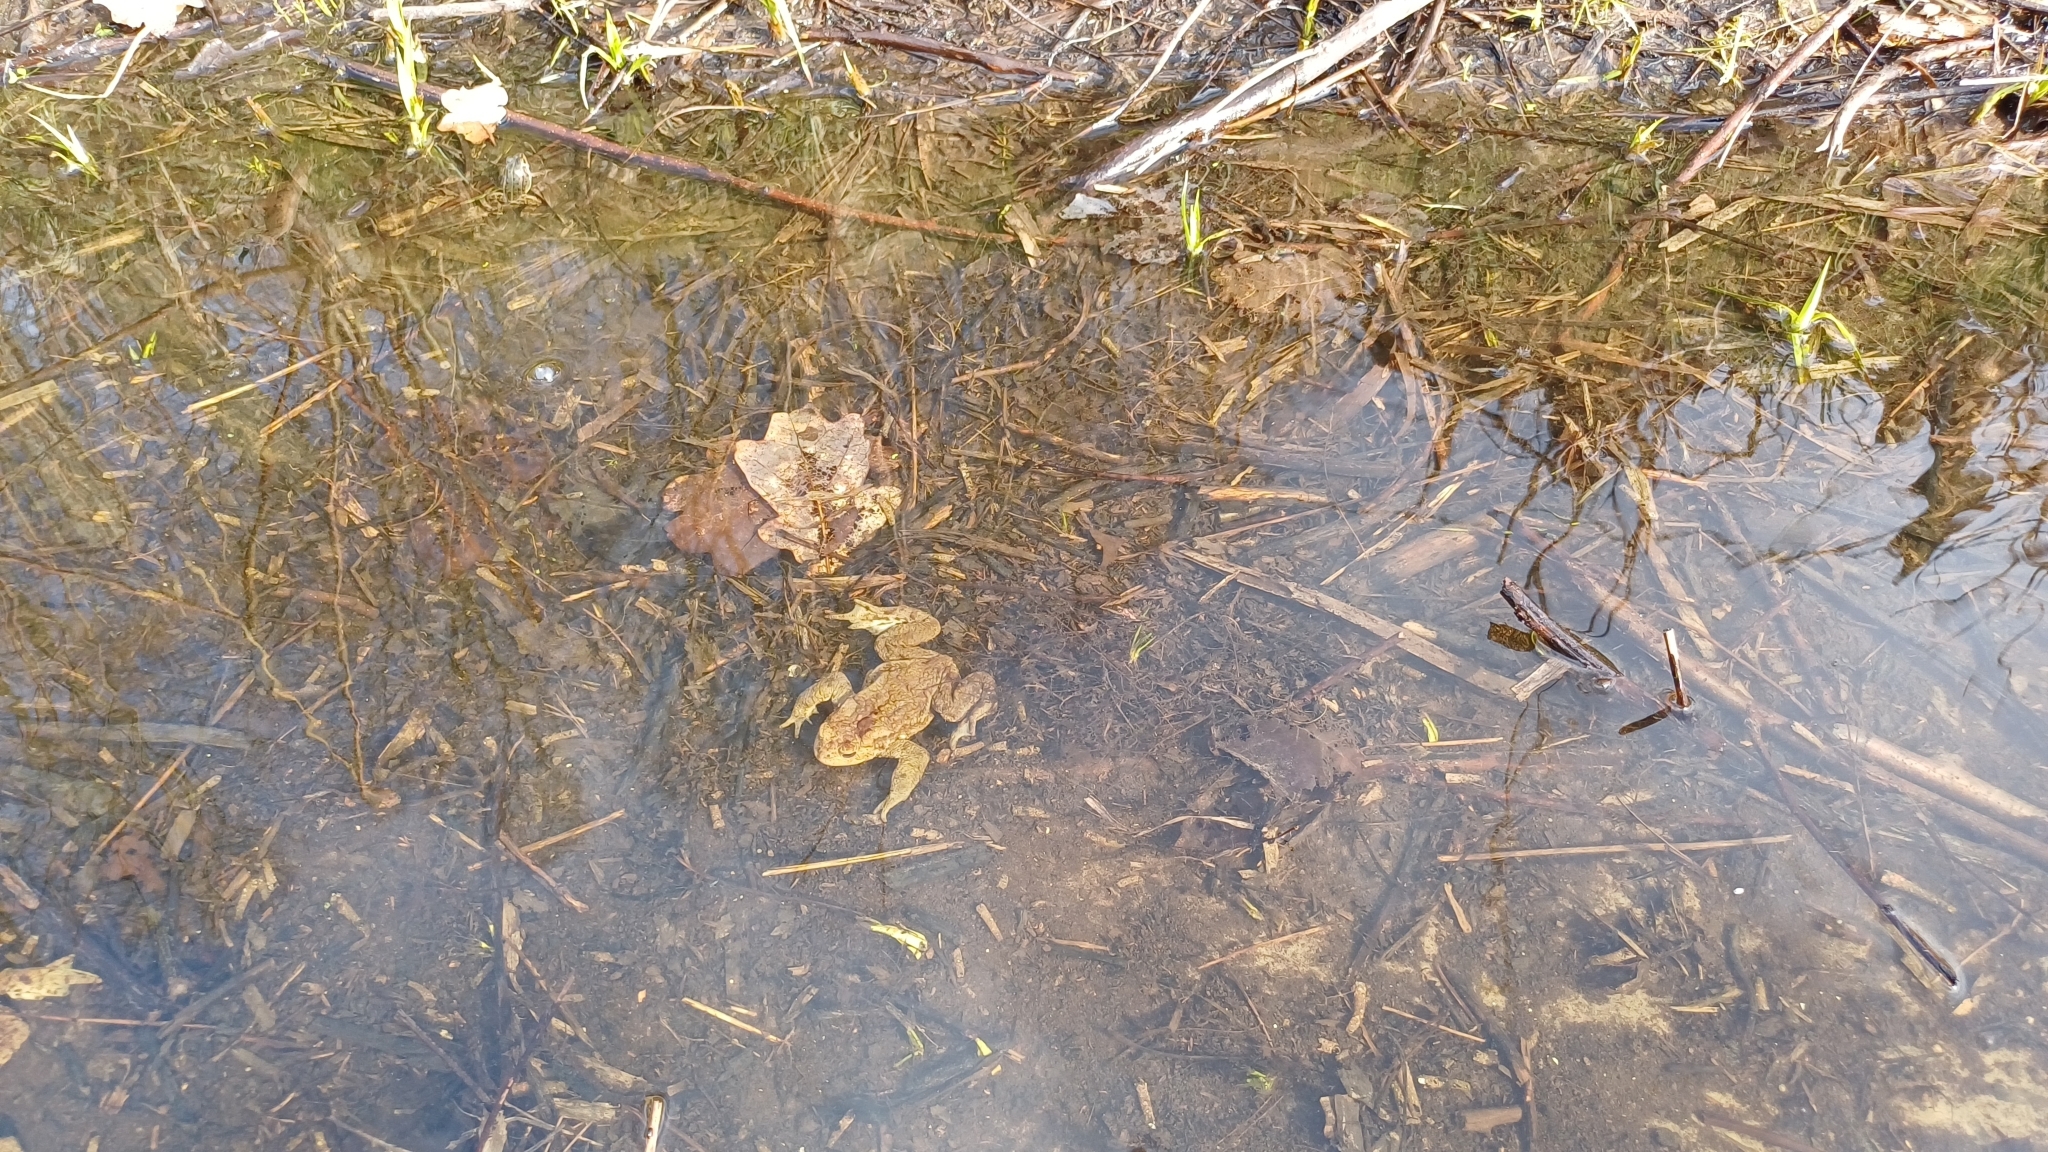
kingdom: Animalia
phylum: Chordata
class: Amphibia
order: Anura
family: Bufonidae
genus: Bufo
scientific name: Bufo bufo
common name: Common toad
